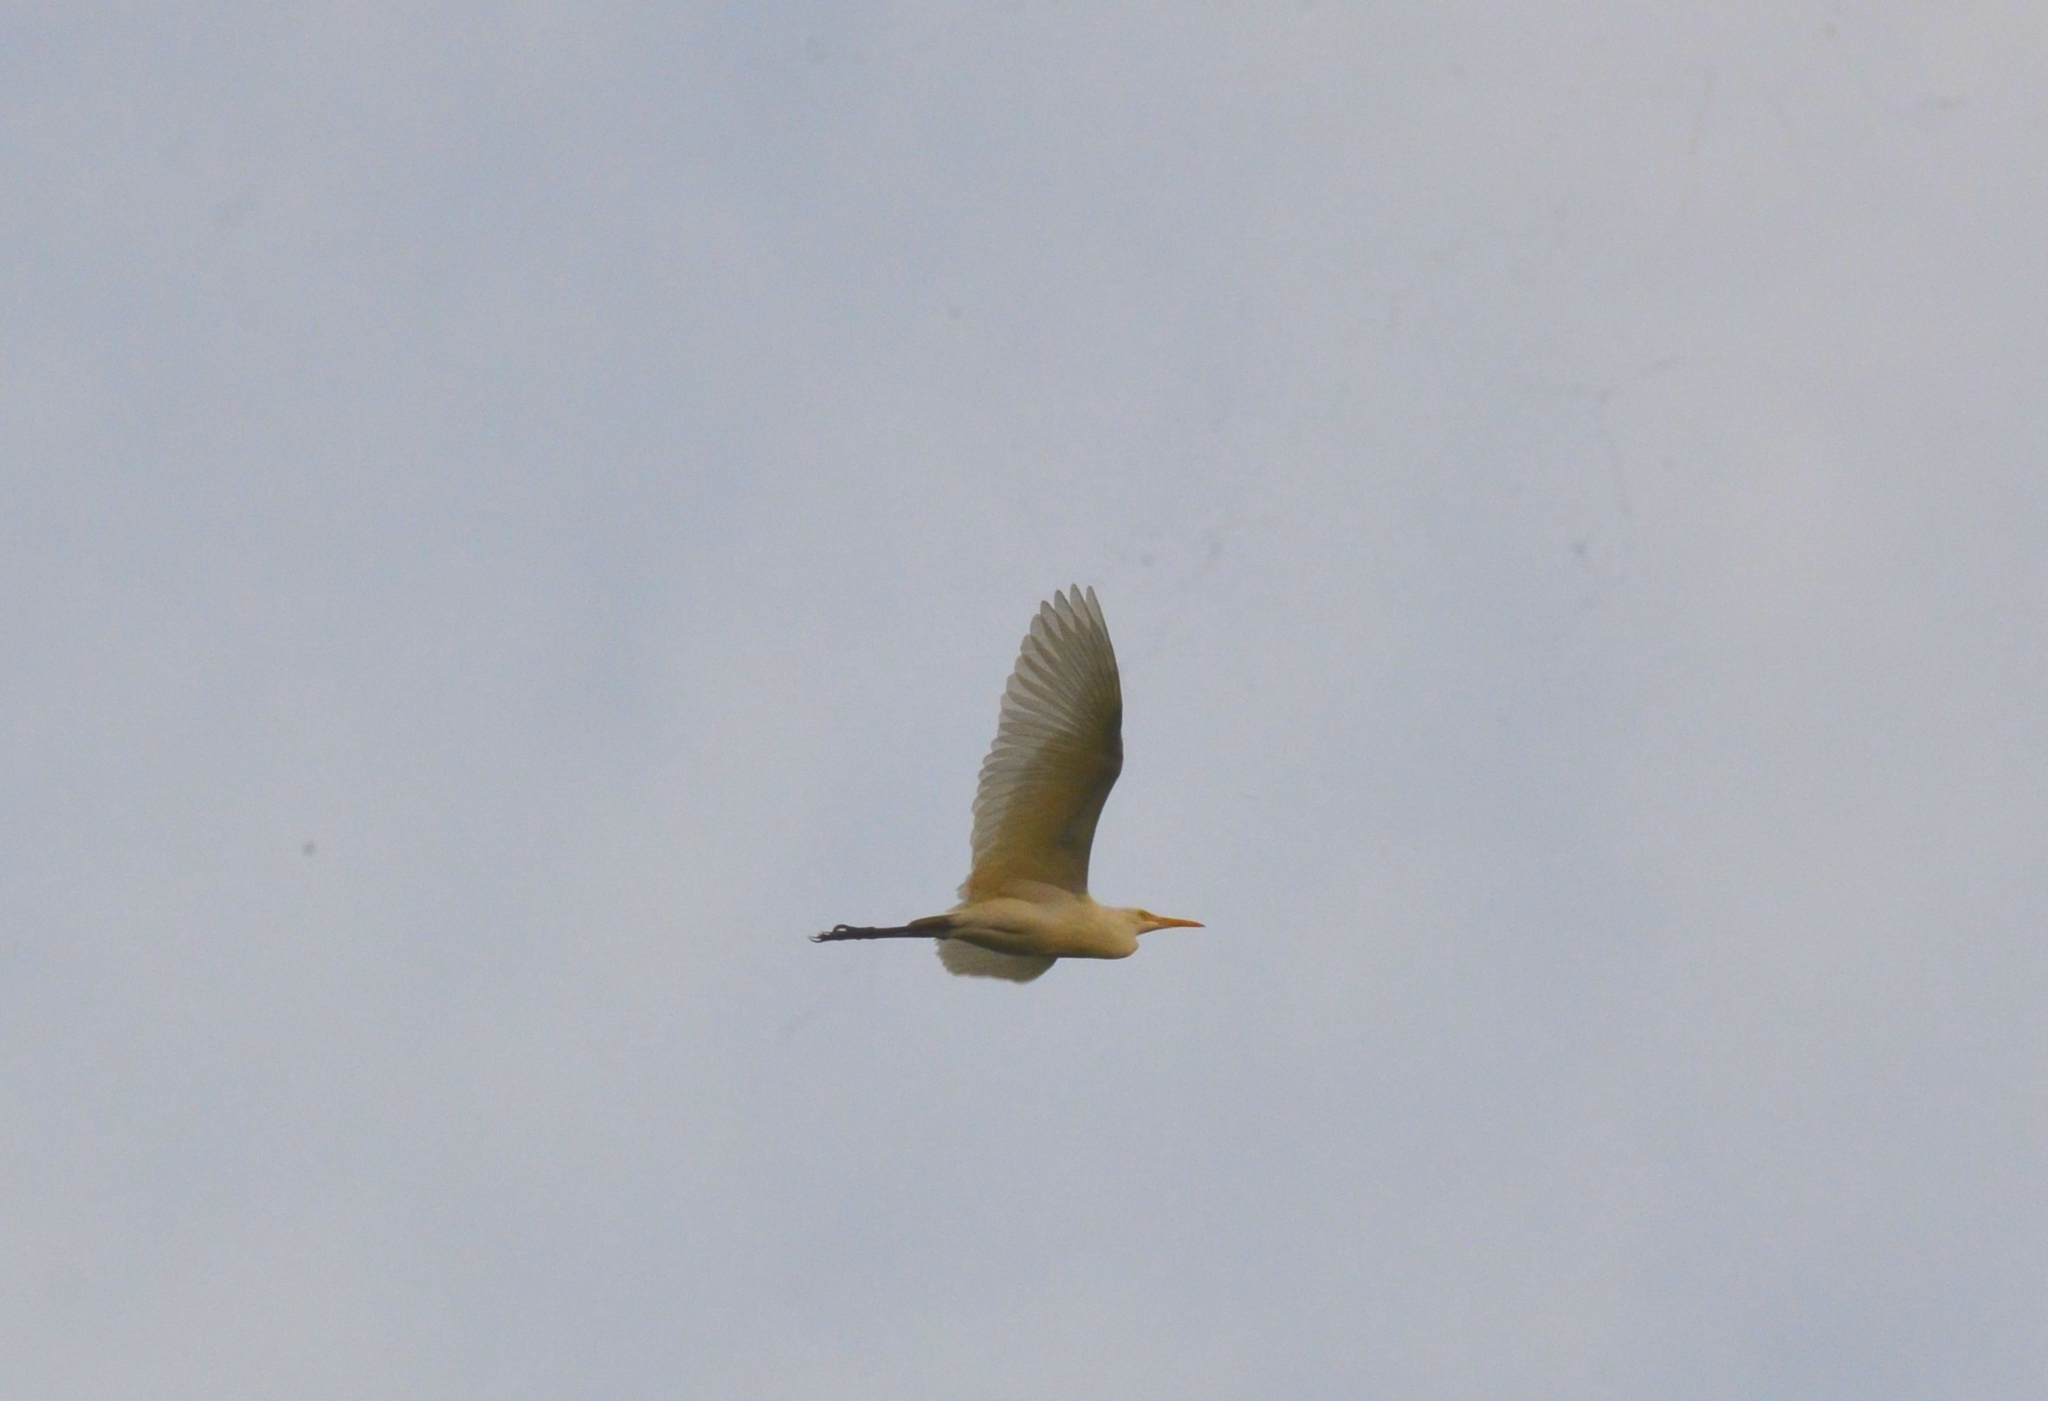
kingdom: Animalia
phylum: Chordata
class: Aves
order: Pelecaniformes
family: Ardeidae
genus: Bubulcus
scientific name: Bubulcus coromandus
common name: Eastern cattle egret
